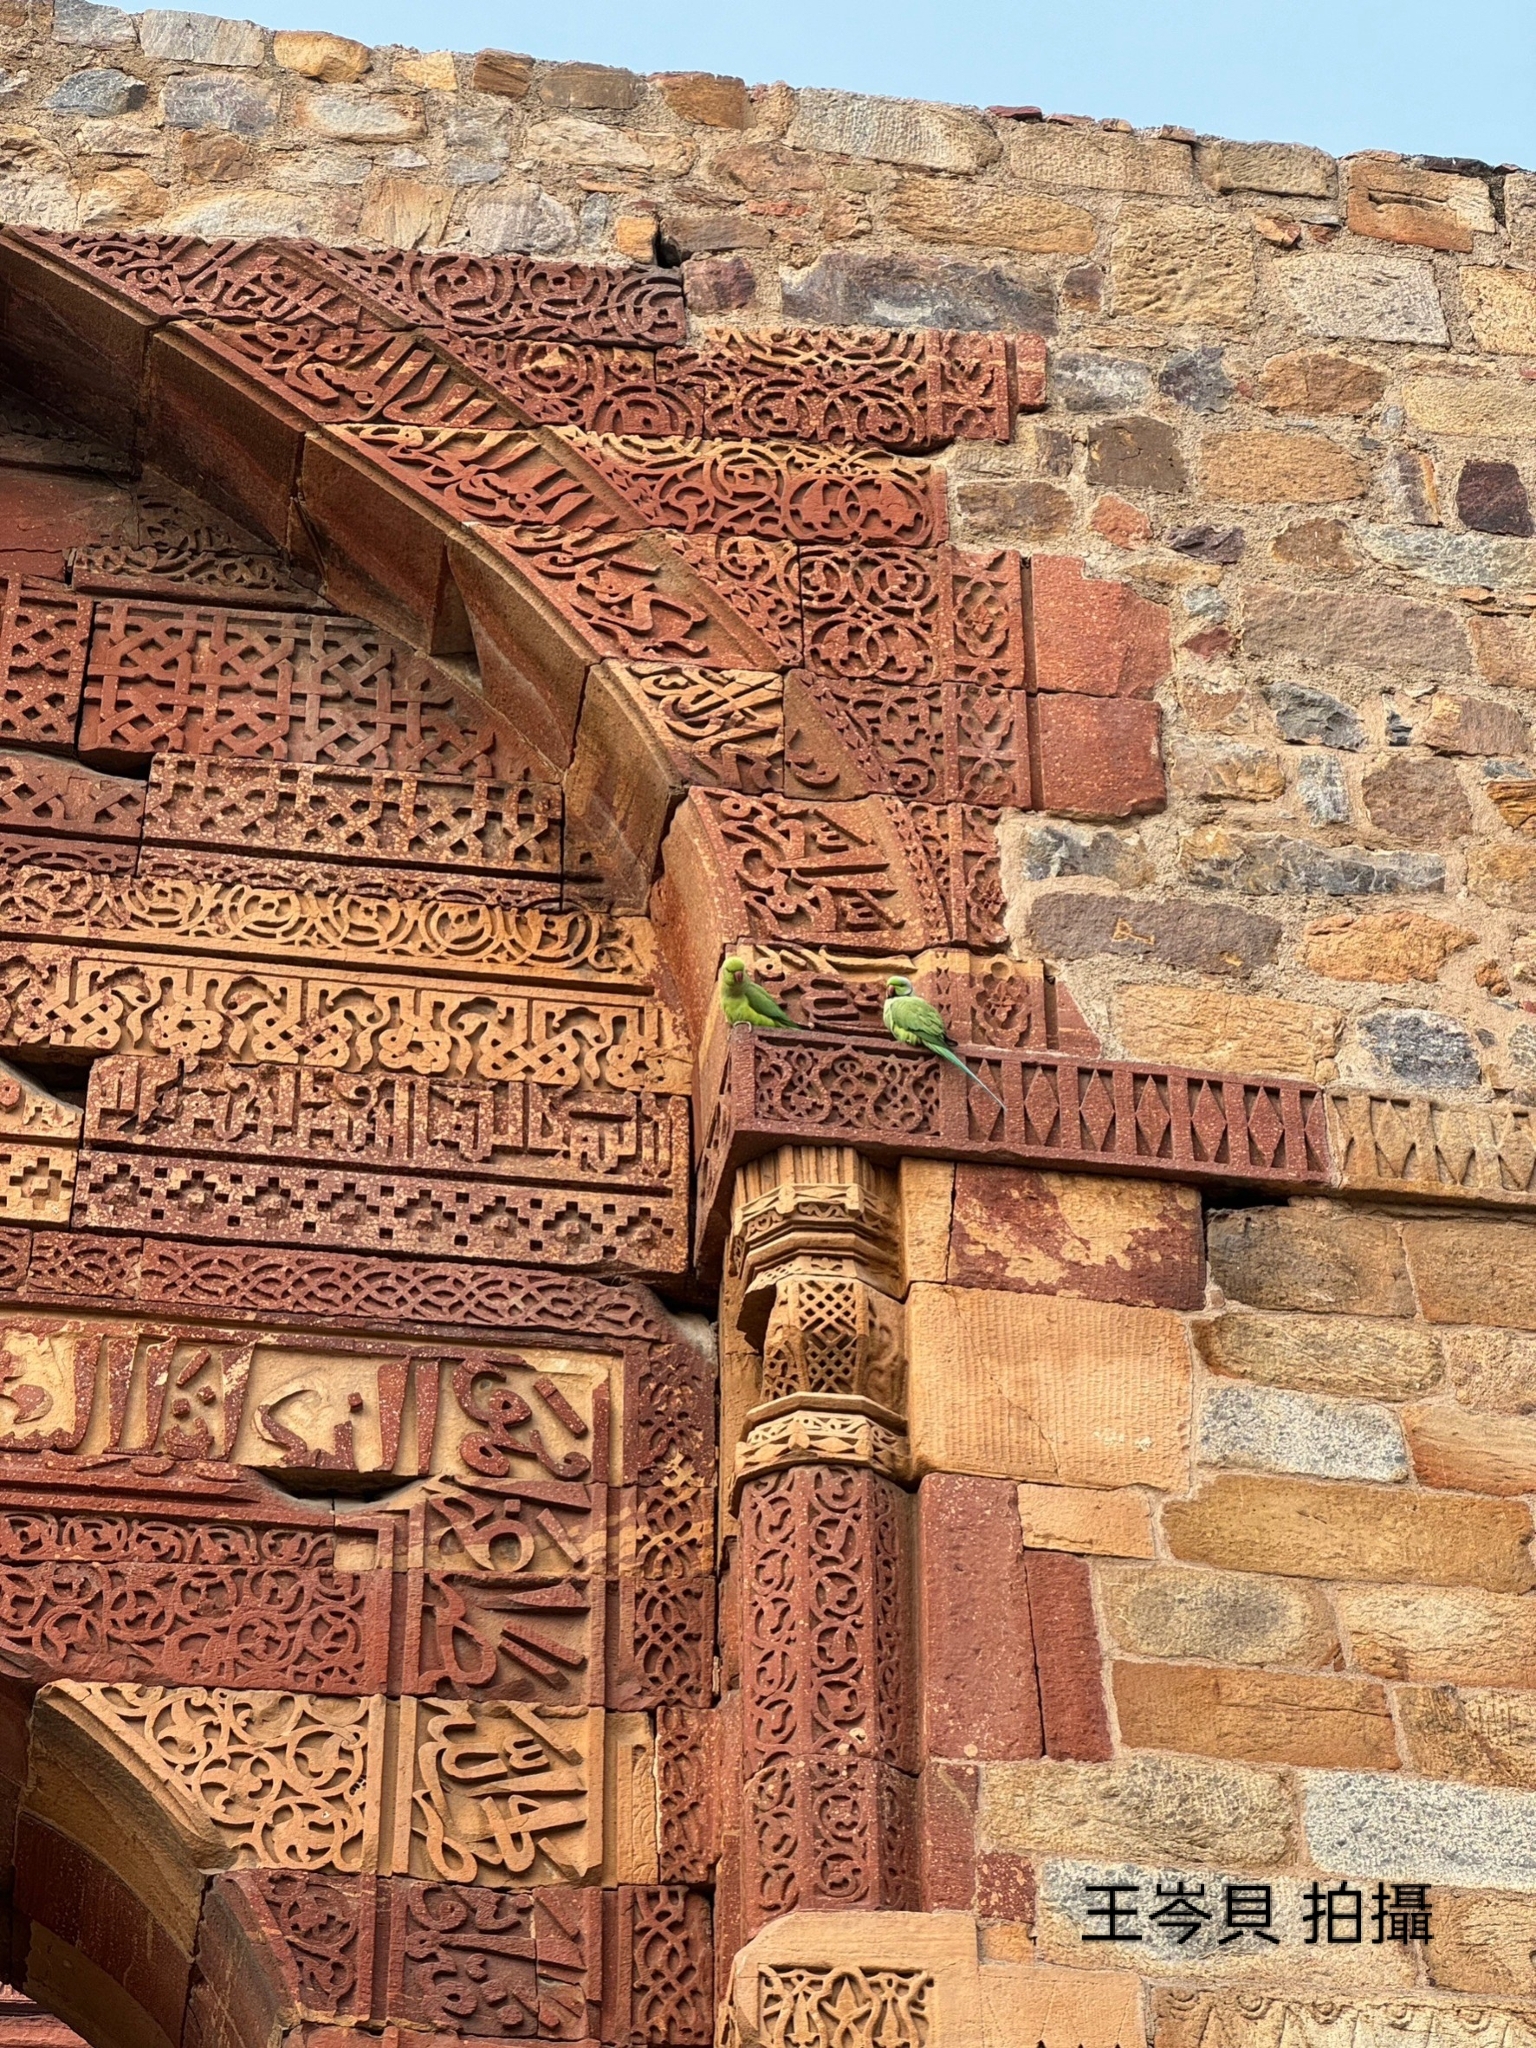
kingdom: Animalia
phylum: Chordata
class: Aves
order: Psittaciformes
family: Psittacidae
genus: Psittacula
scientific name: Psittacula krameri
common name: Rose-ringed parakeet
